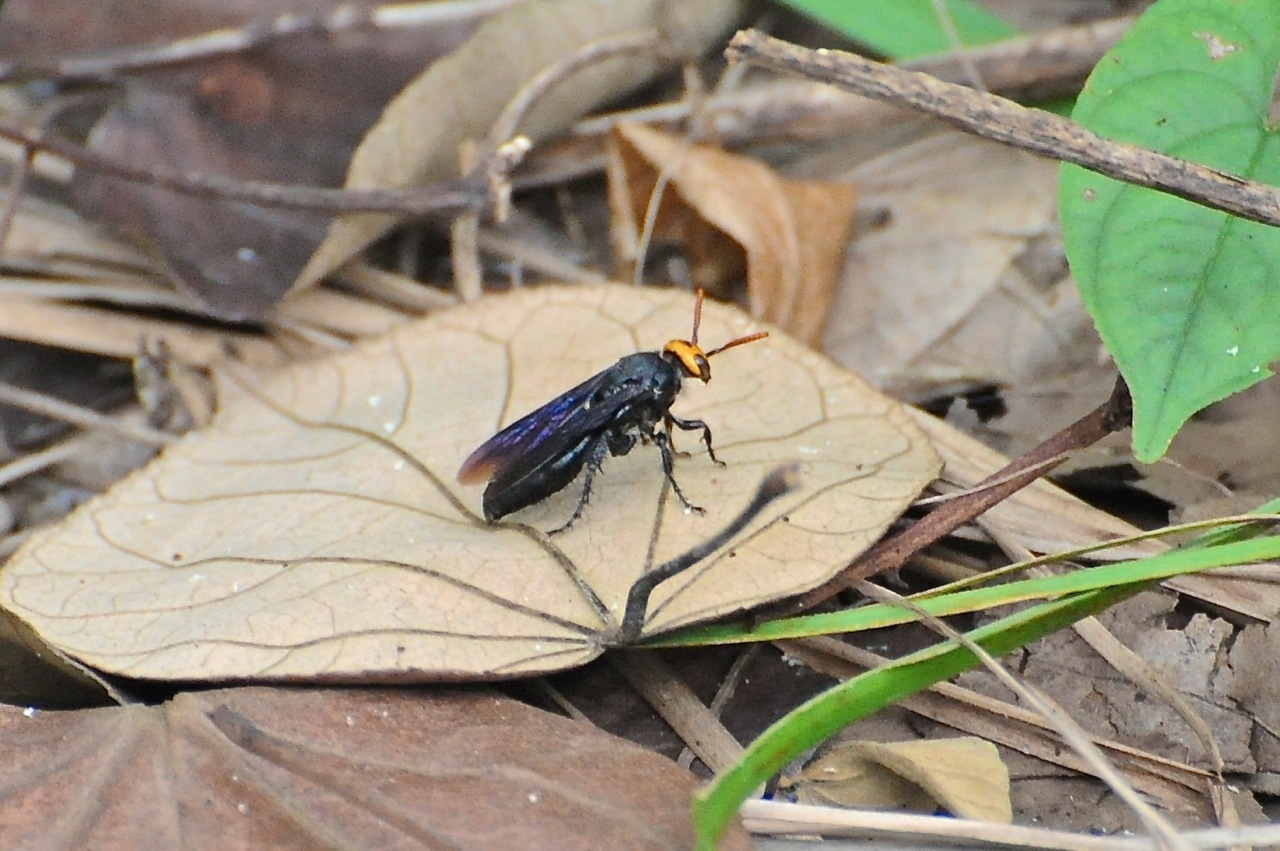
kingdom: Animalia
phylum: Arthropoda
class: Insecta
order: Hymenoptera
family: Scoliidae
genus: Scolia
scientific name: Scolia superciliaris
